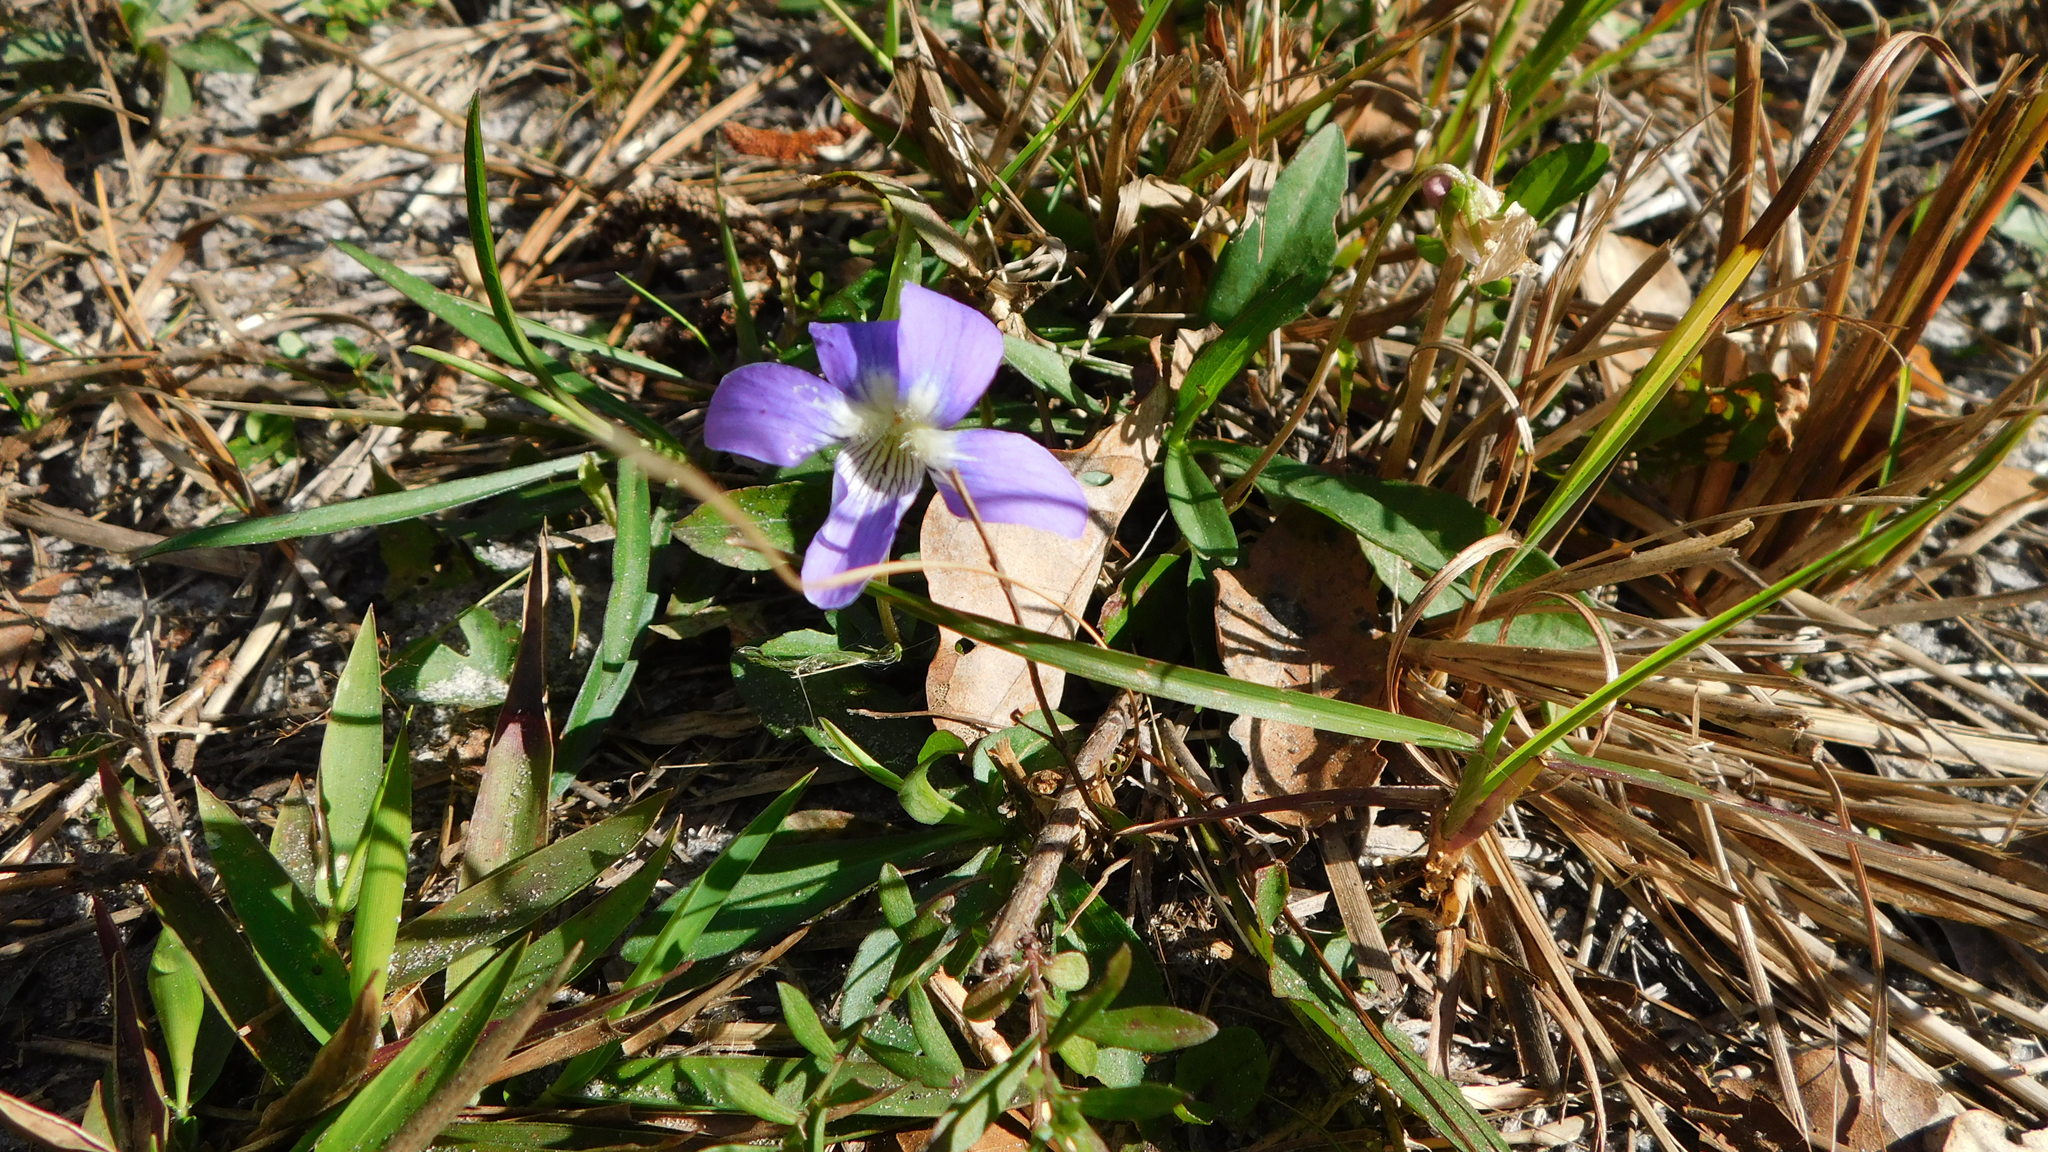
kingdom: Plantae
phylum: Tracheophyta
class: Magnoliopsida
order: Malpighiales
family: Violaceae
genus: Viola
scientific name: Viola septemloba
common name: Southern coast violet
